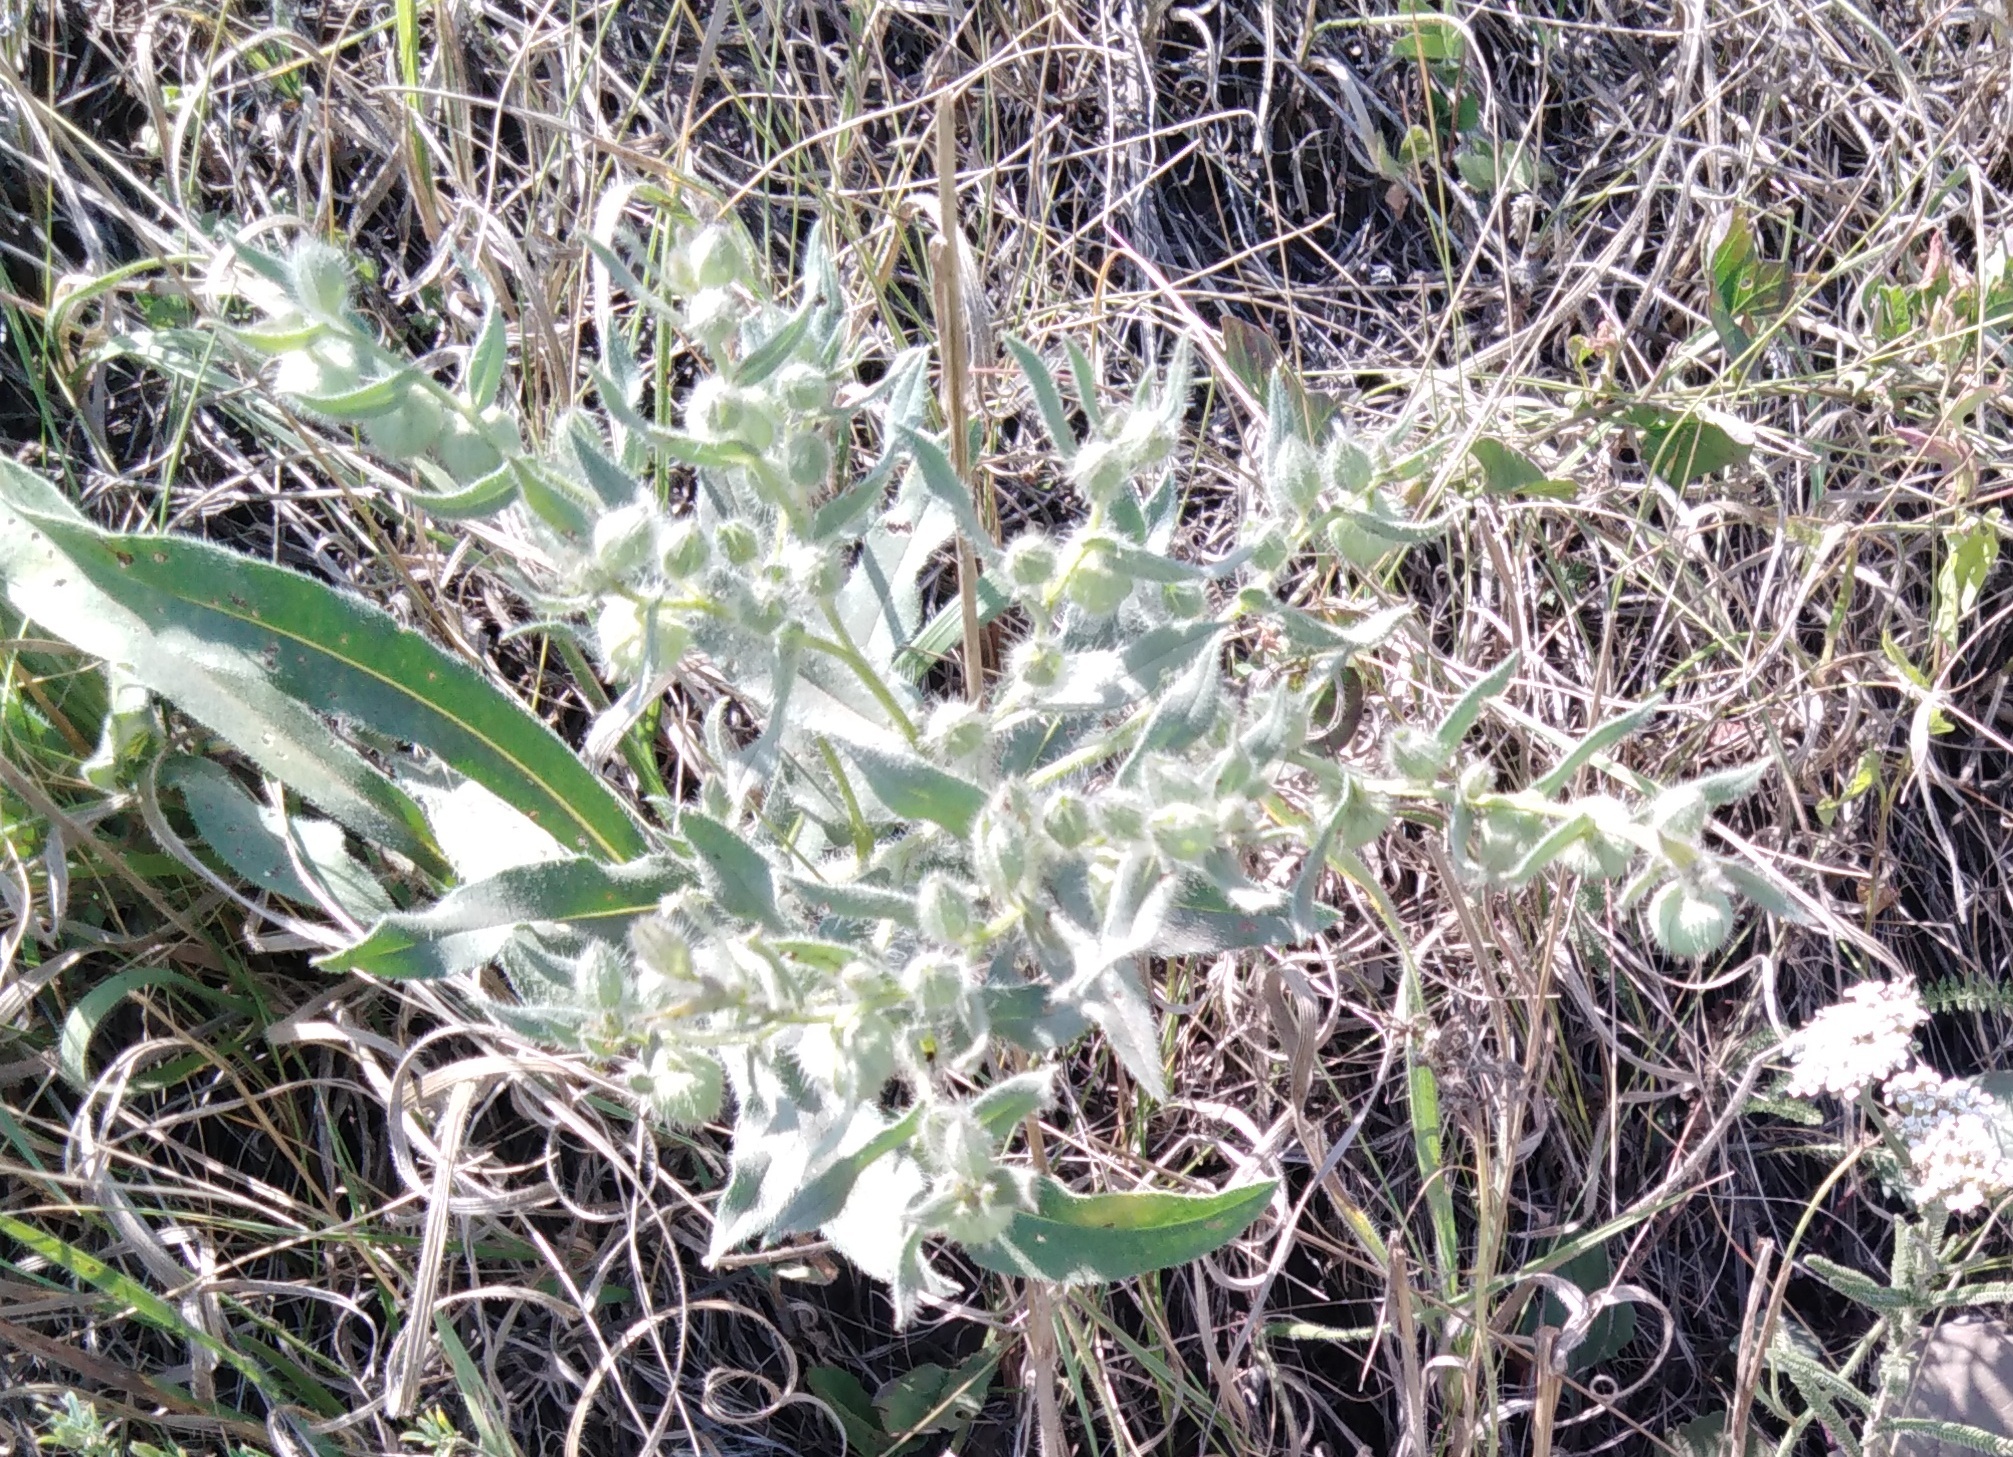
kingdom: Plantae
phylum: Tracheophyta
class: Magnoliopsida
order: Boraginales
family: Boraginaceae
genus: Nonea
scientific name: Nonea pulla
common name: Brown nonea
